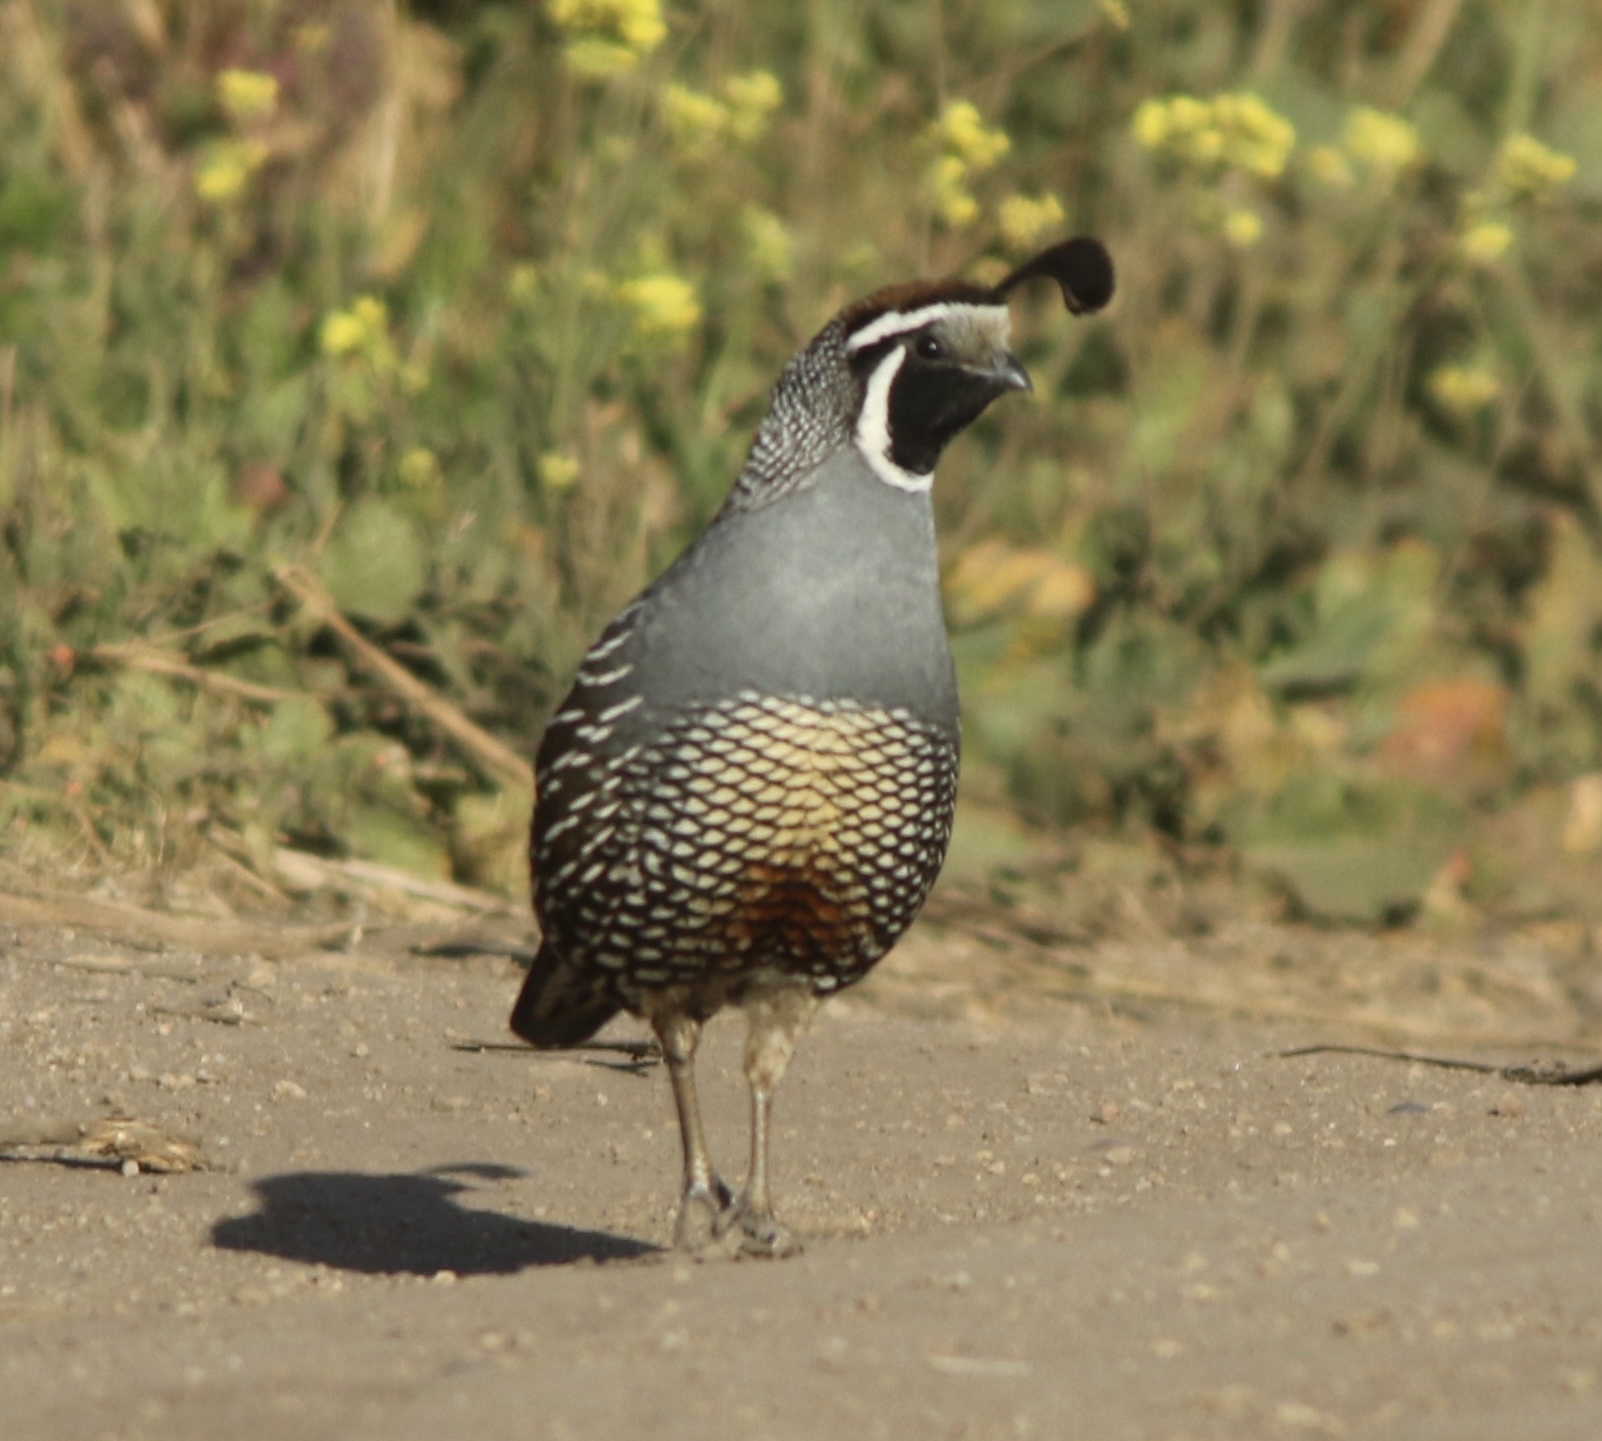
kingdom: Animalia
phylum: Chordata
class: Aves
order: Galliformes
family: Odontophoridae
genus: Callipepla
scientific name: Callipepla californica
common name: California quail
